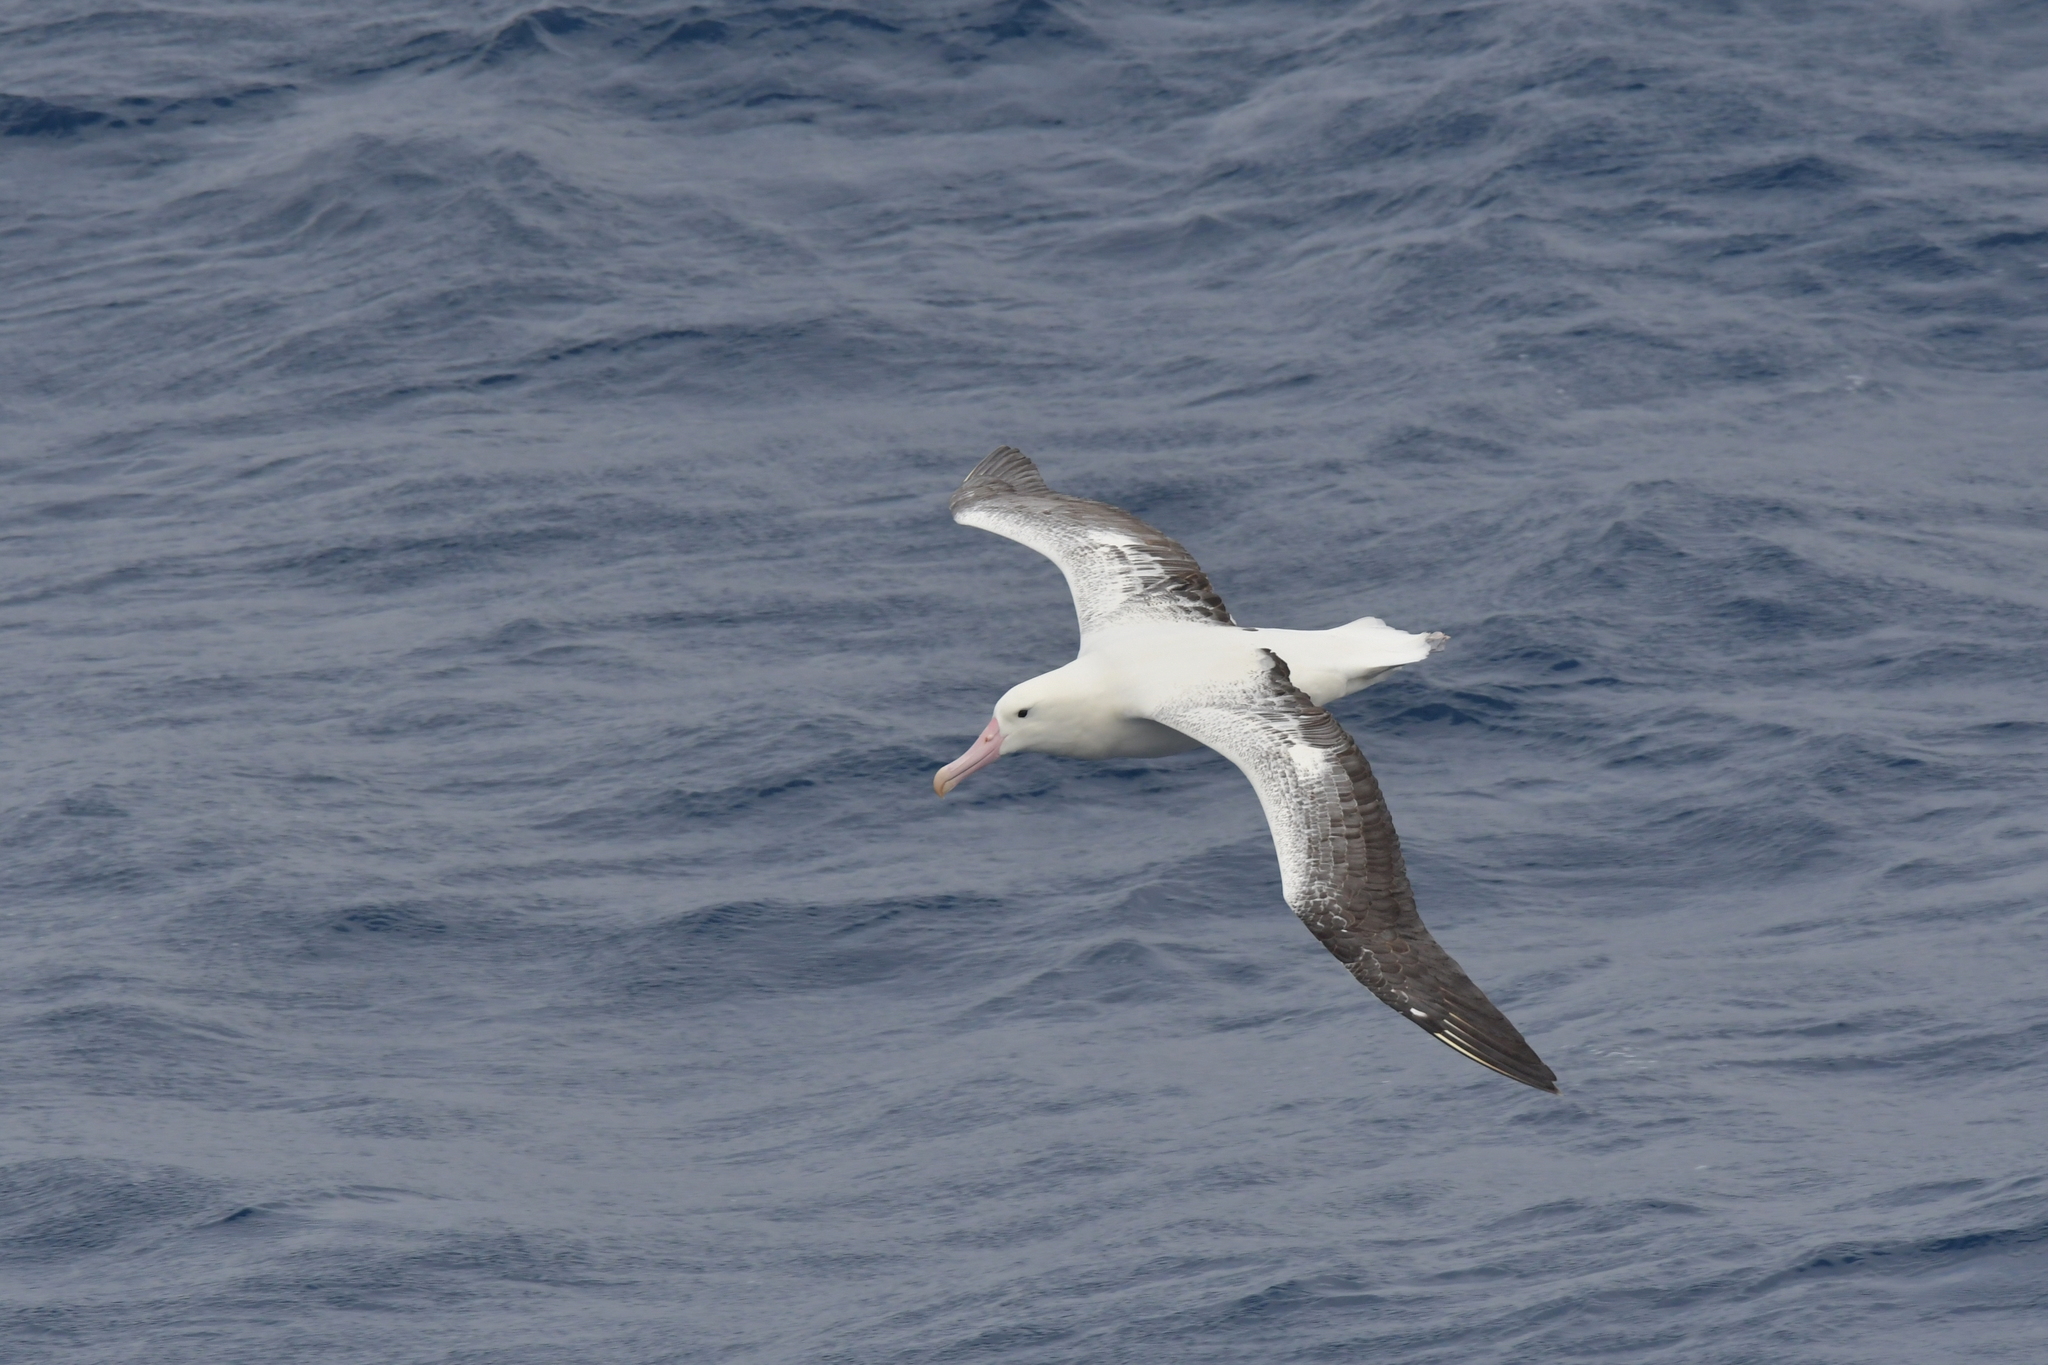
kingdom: Animalia
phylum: Chordata
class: Aves
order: Procellariiformes
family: Diomedeidae
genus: Diomedea
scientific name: Diomedea epomophora
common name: Southern royal albatross
